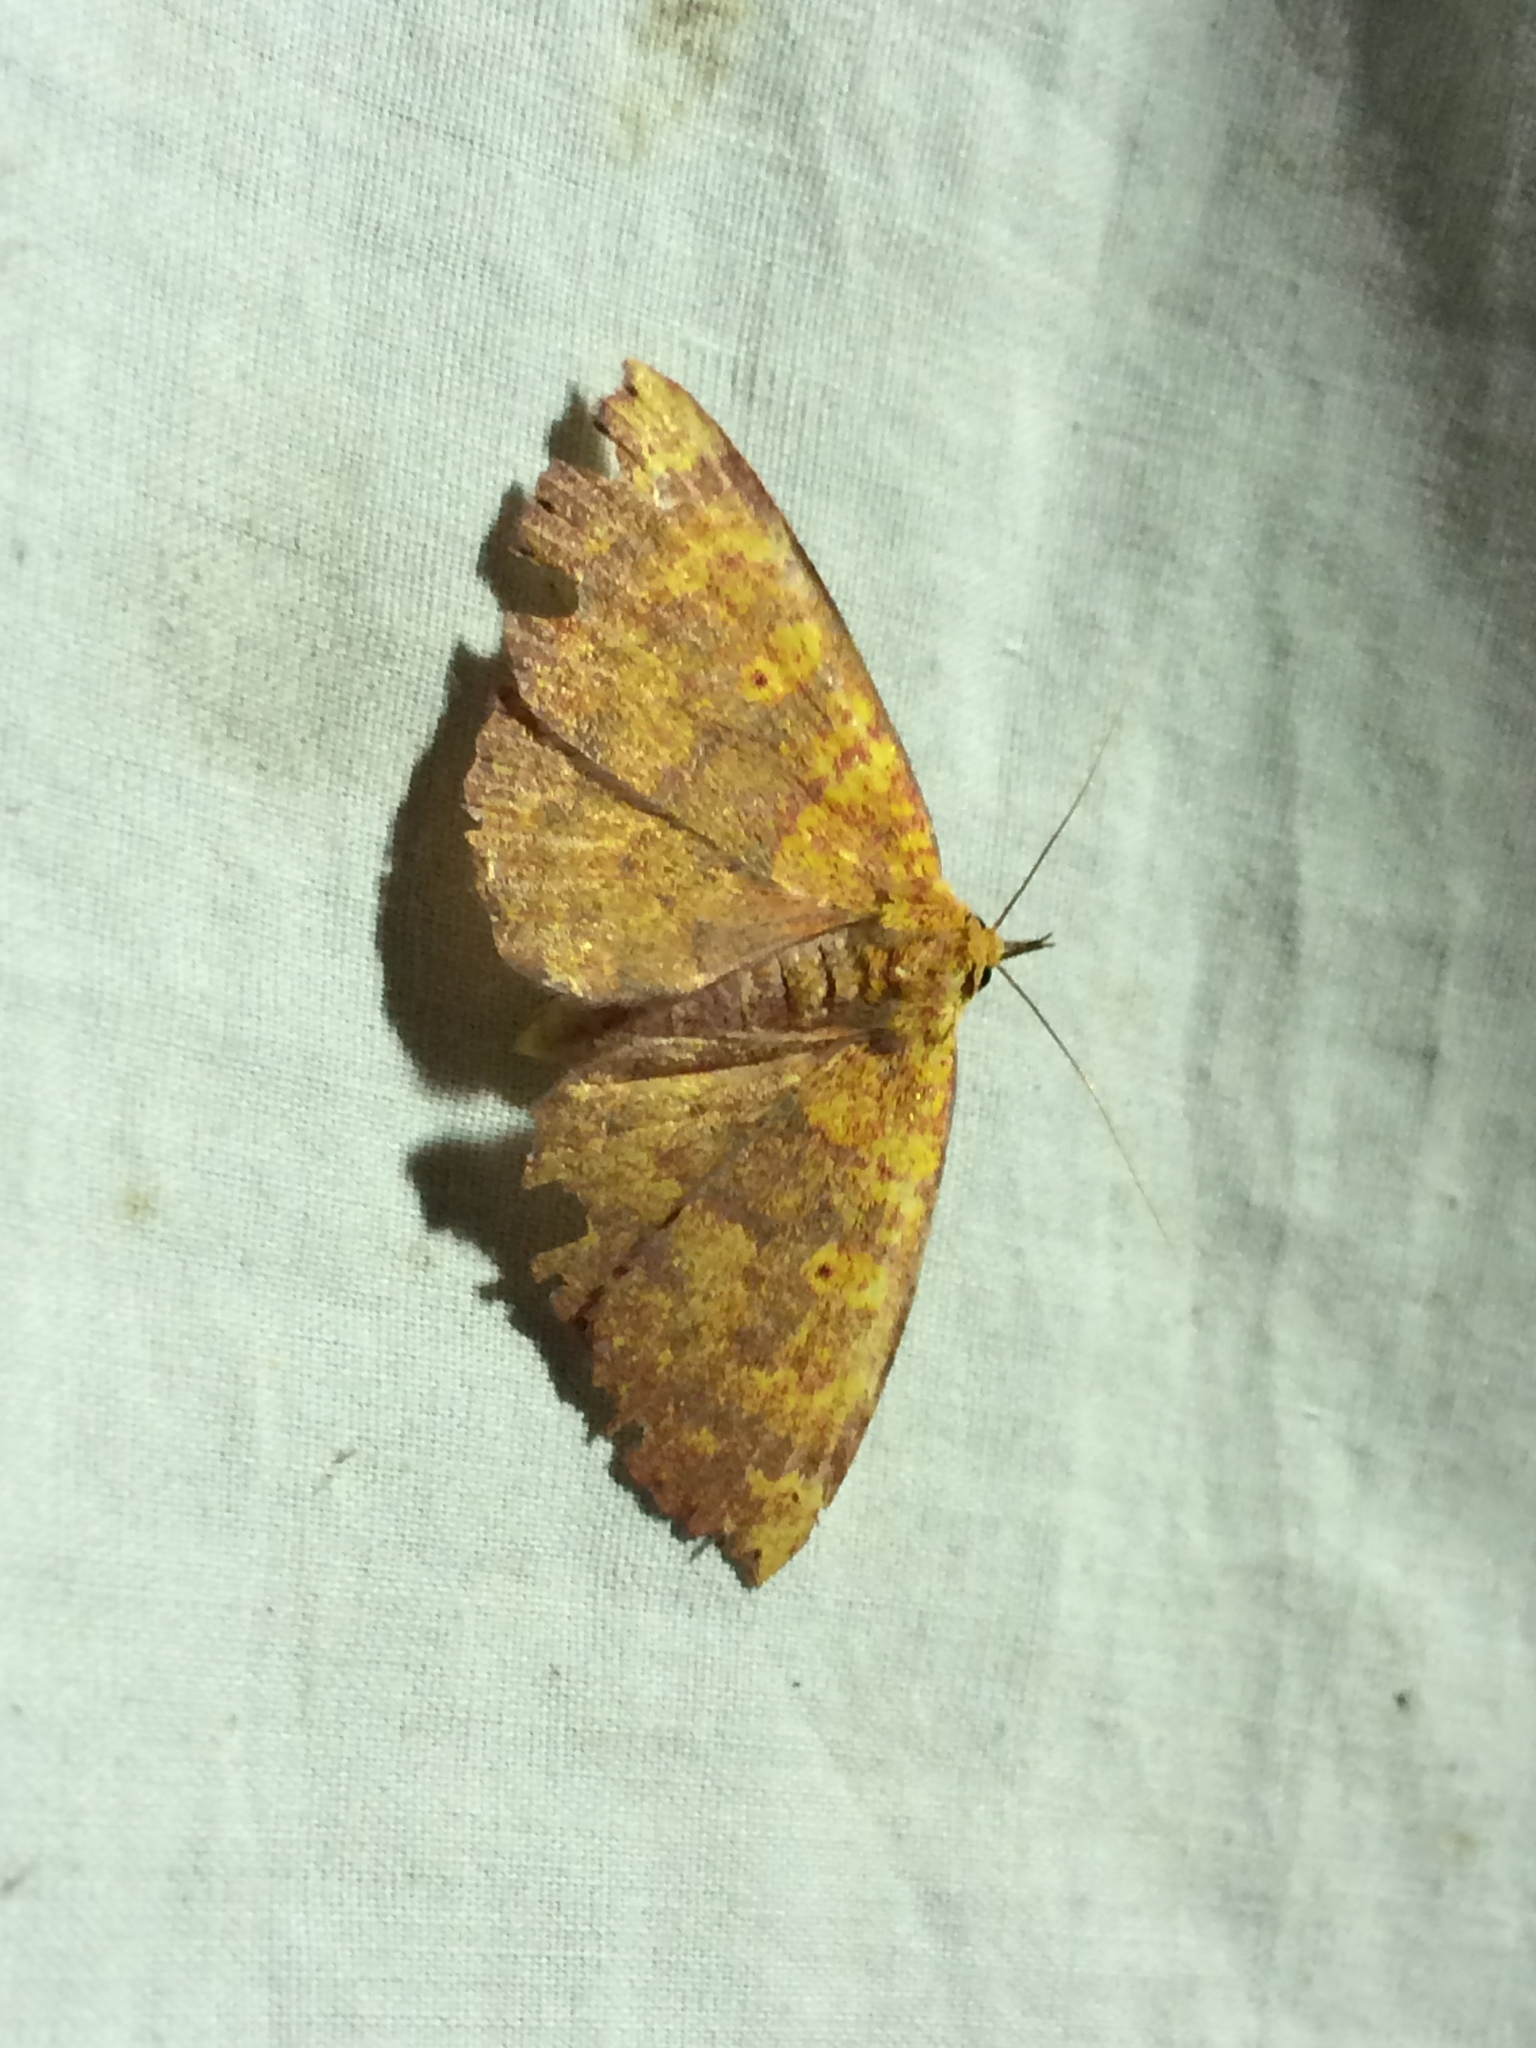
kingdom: Animalia
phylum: Arthropoda
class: Insecta
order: Lepidoptera
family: Erebidae
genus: Singara
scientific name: Singara diversalis
